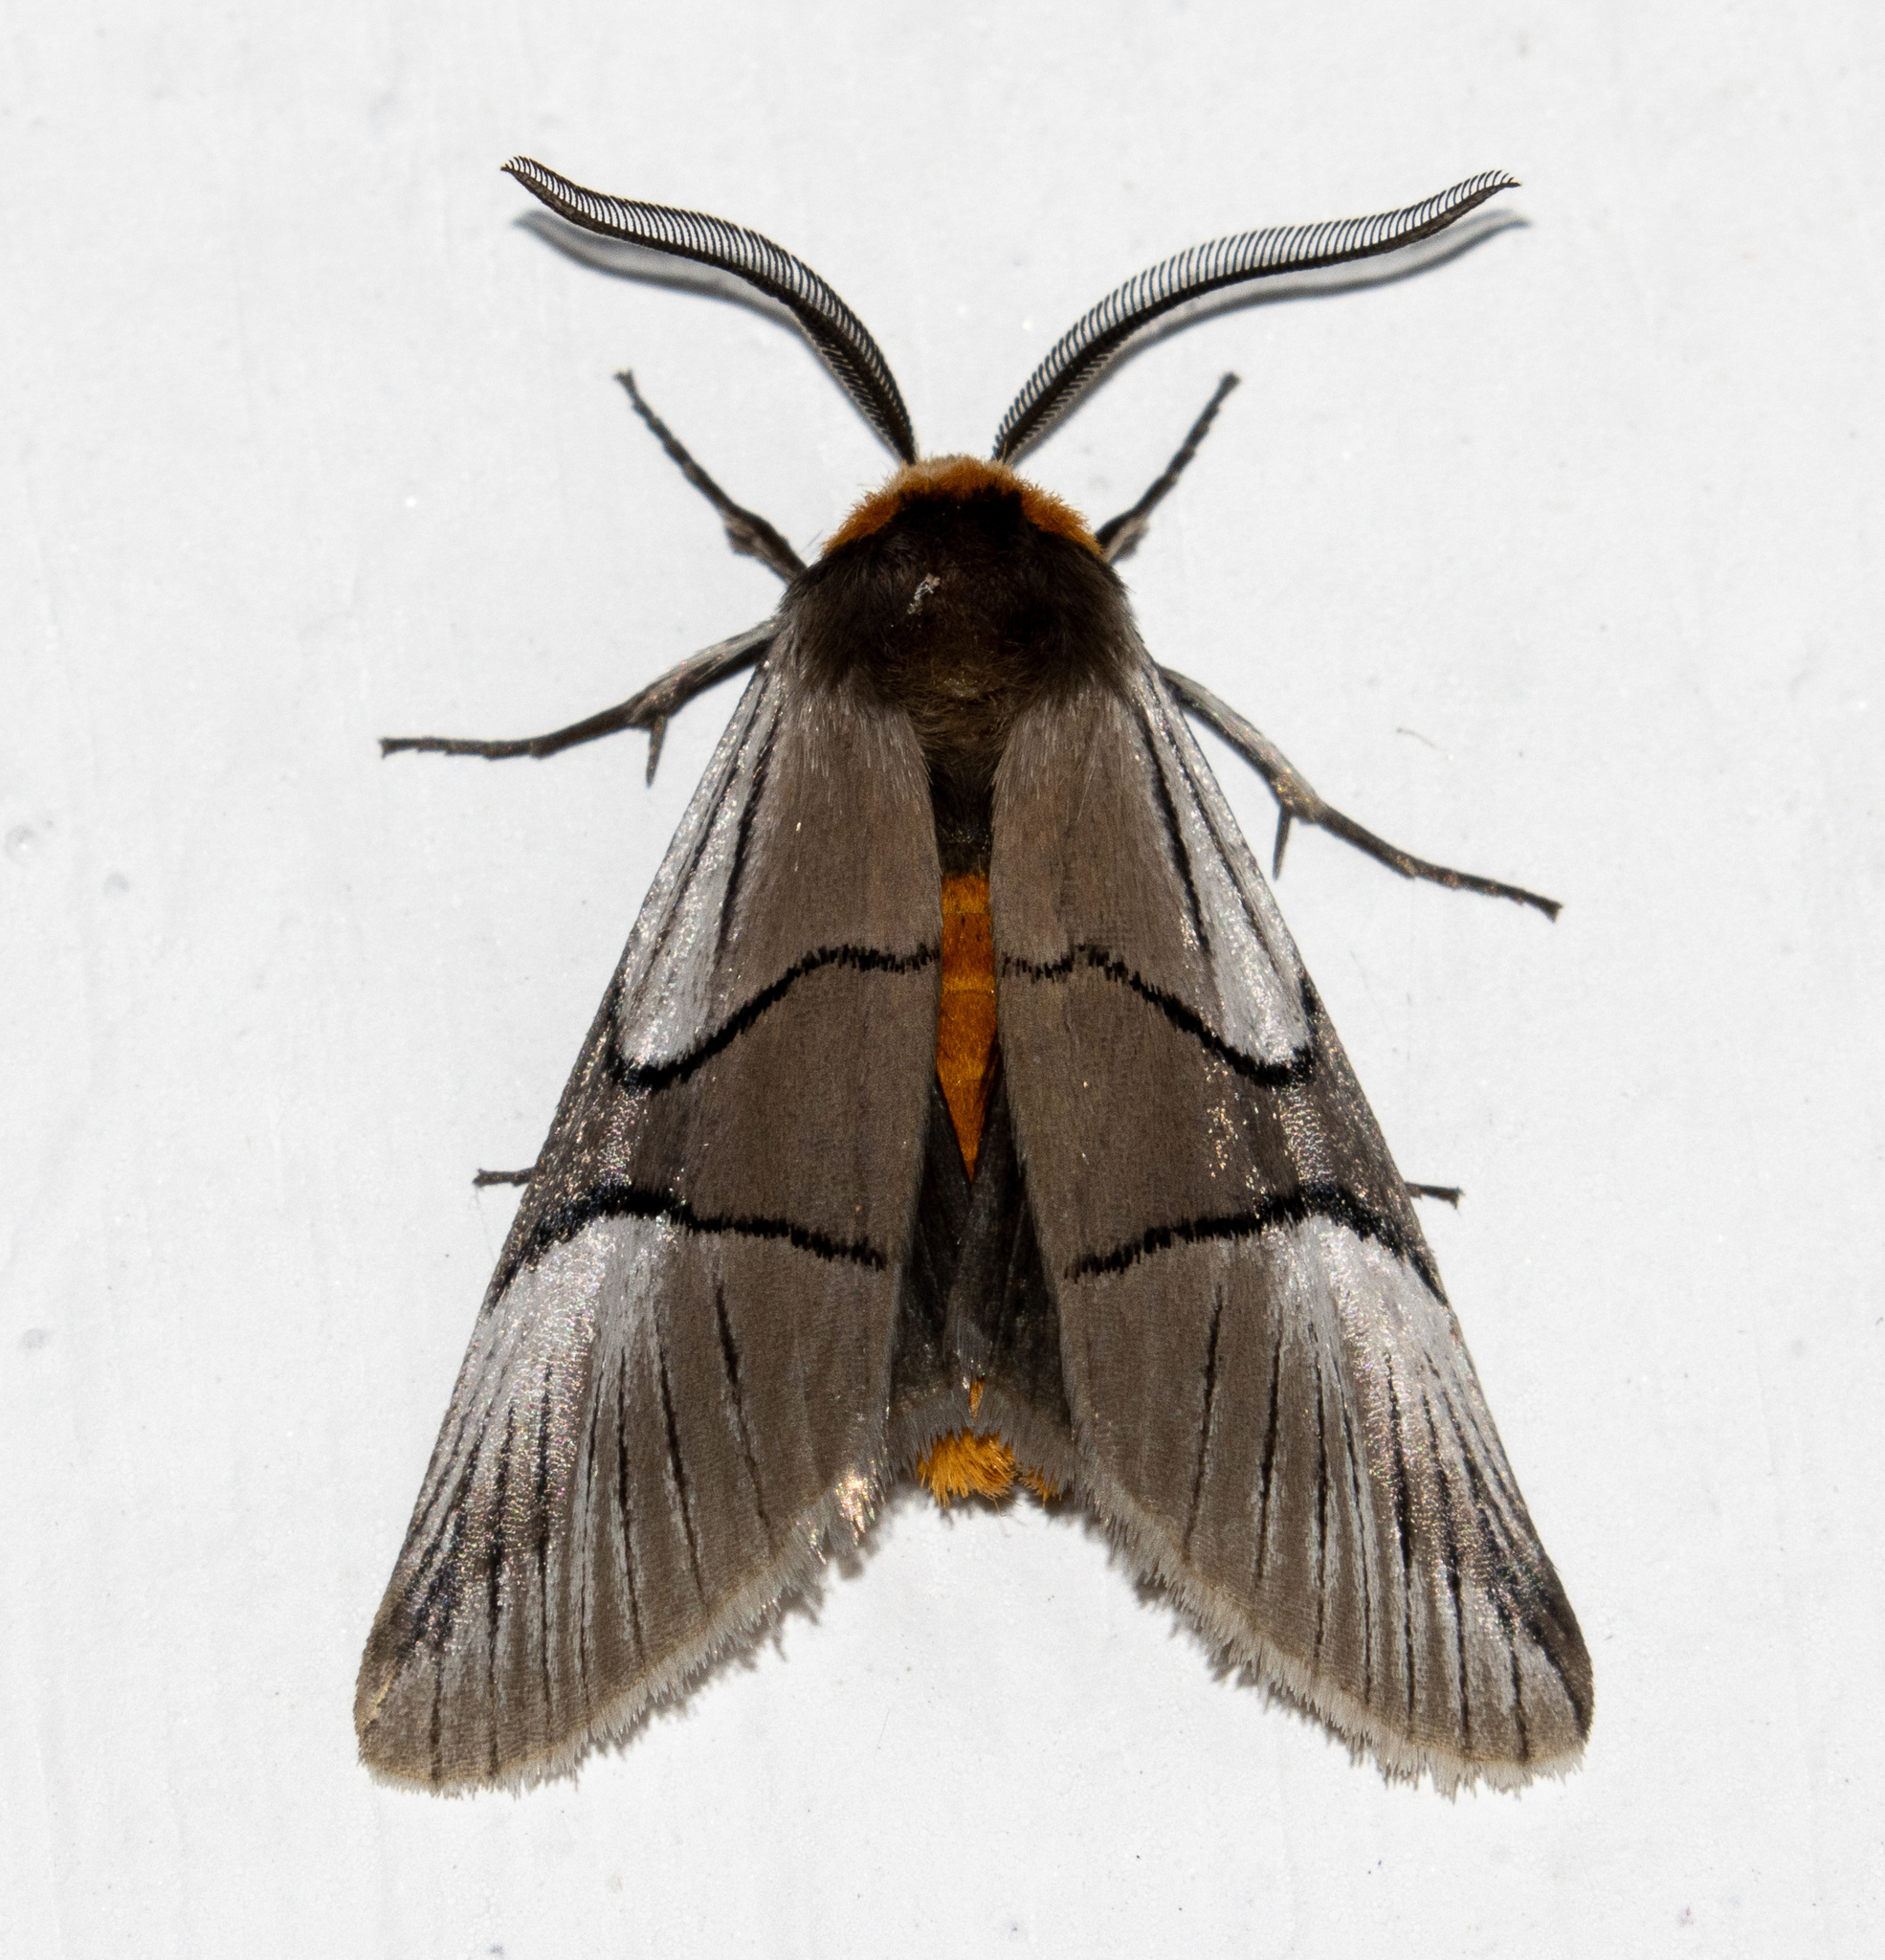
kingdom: Animalia
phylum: Arthropoda
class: Insecta
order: Lepidoptera
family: Noctuidae
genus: Oxythaphora
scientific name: Oxythaphora delta
